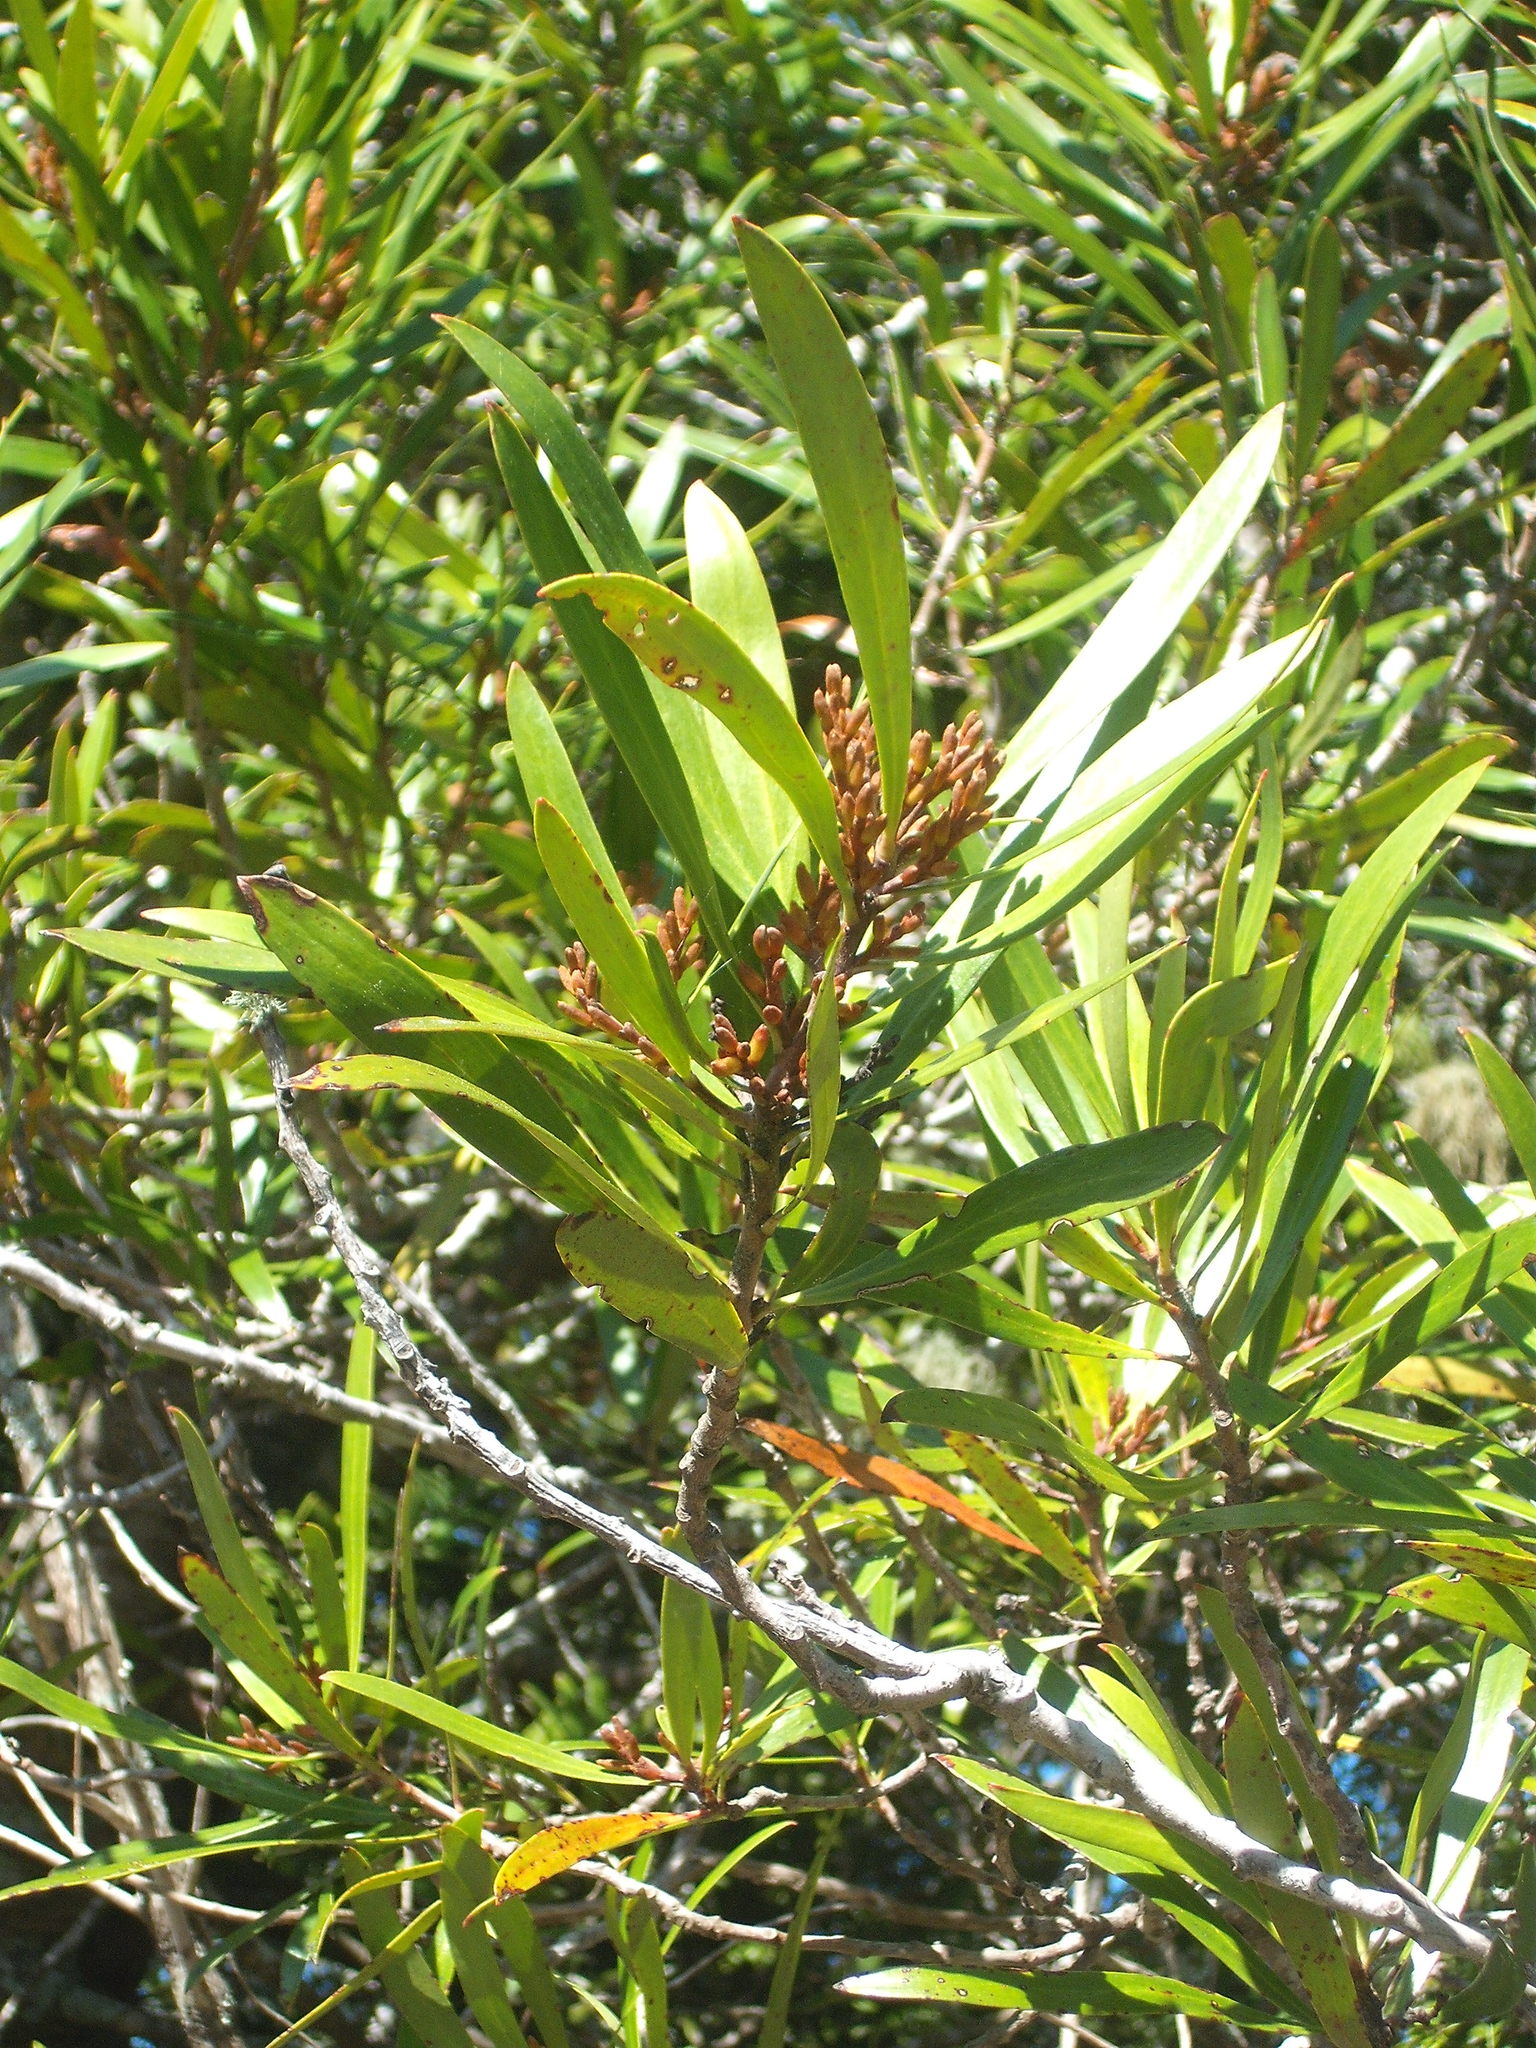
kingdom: Plantae
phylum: Tracheophyta
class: Magnoliopsida
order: Proteales
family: Proteaceae
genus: Toronia
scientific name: Toronia toru
